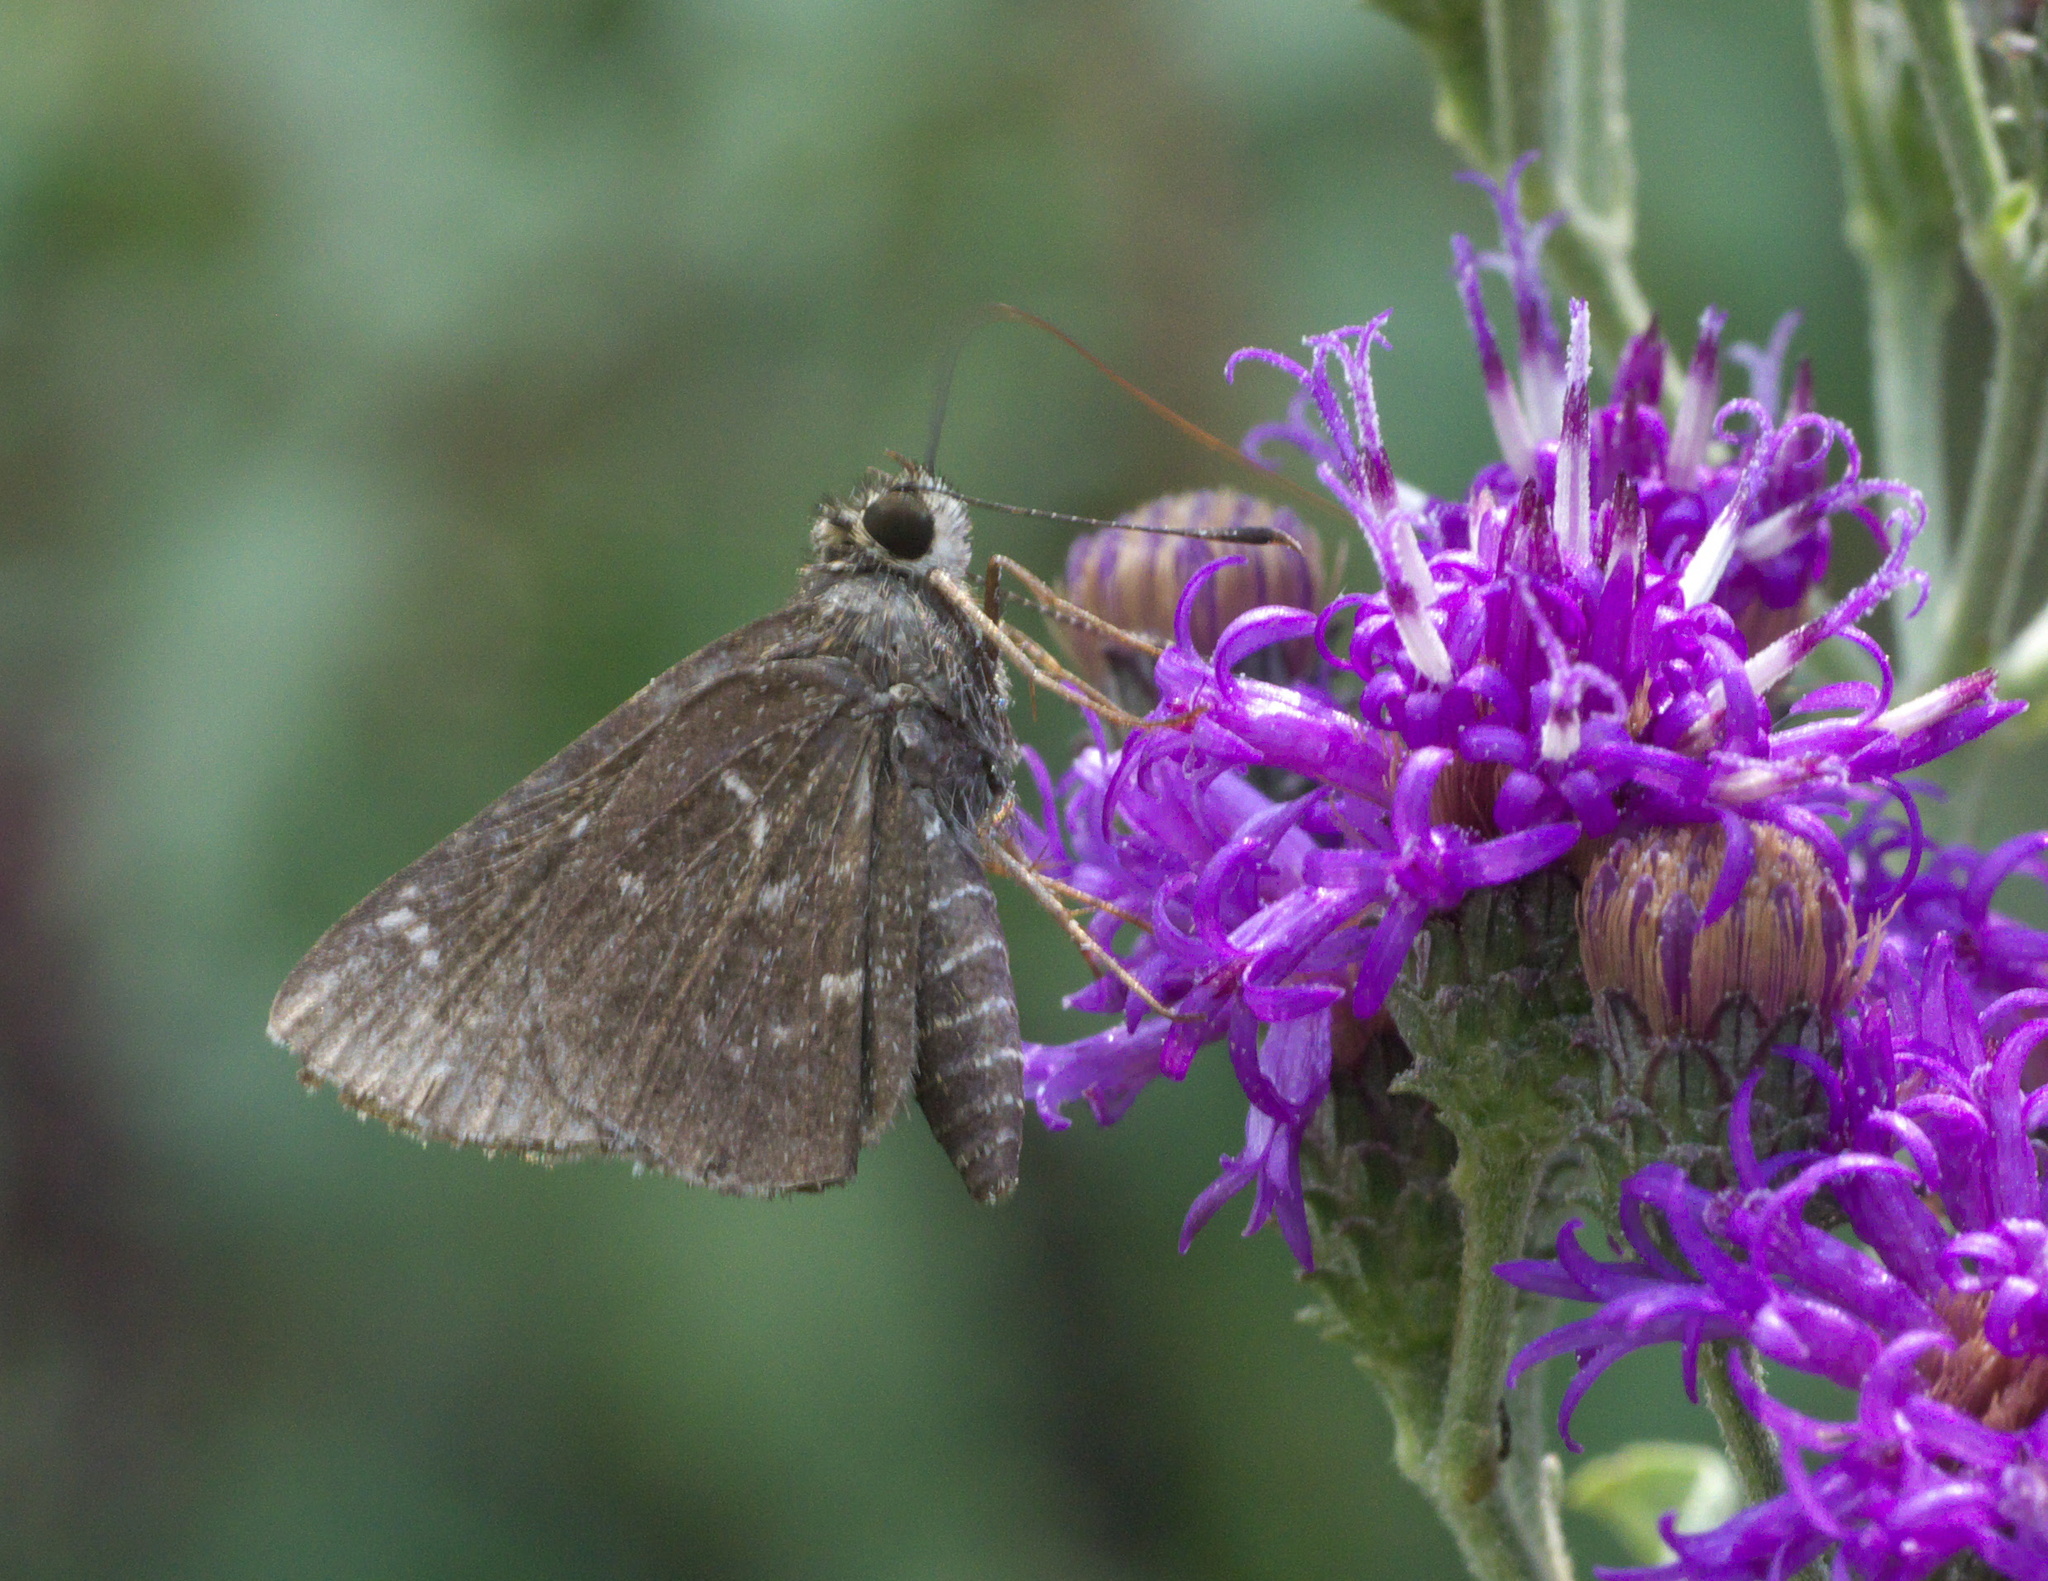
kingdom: Animalia
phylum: Arthropoda
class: Insecta
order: Lepidoptera
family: Hesperiidae
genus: Mastor
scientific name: Mastor celia
